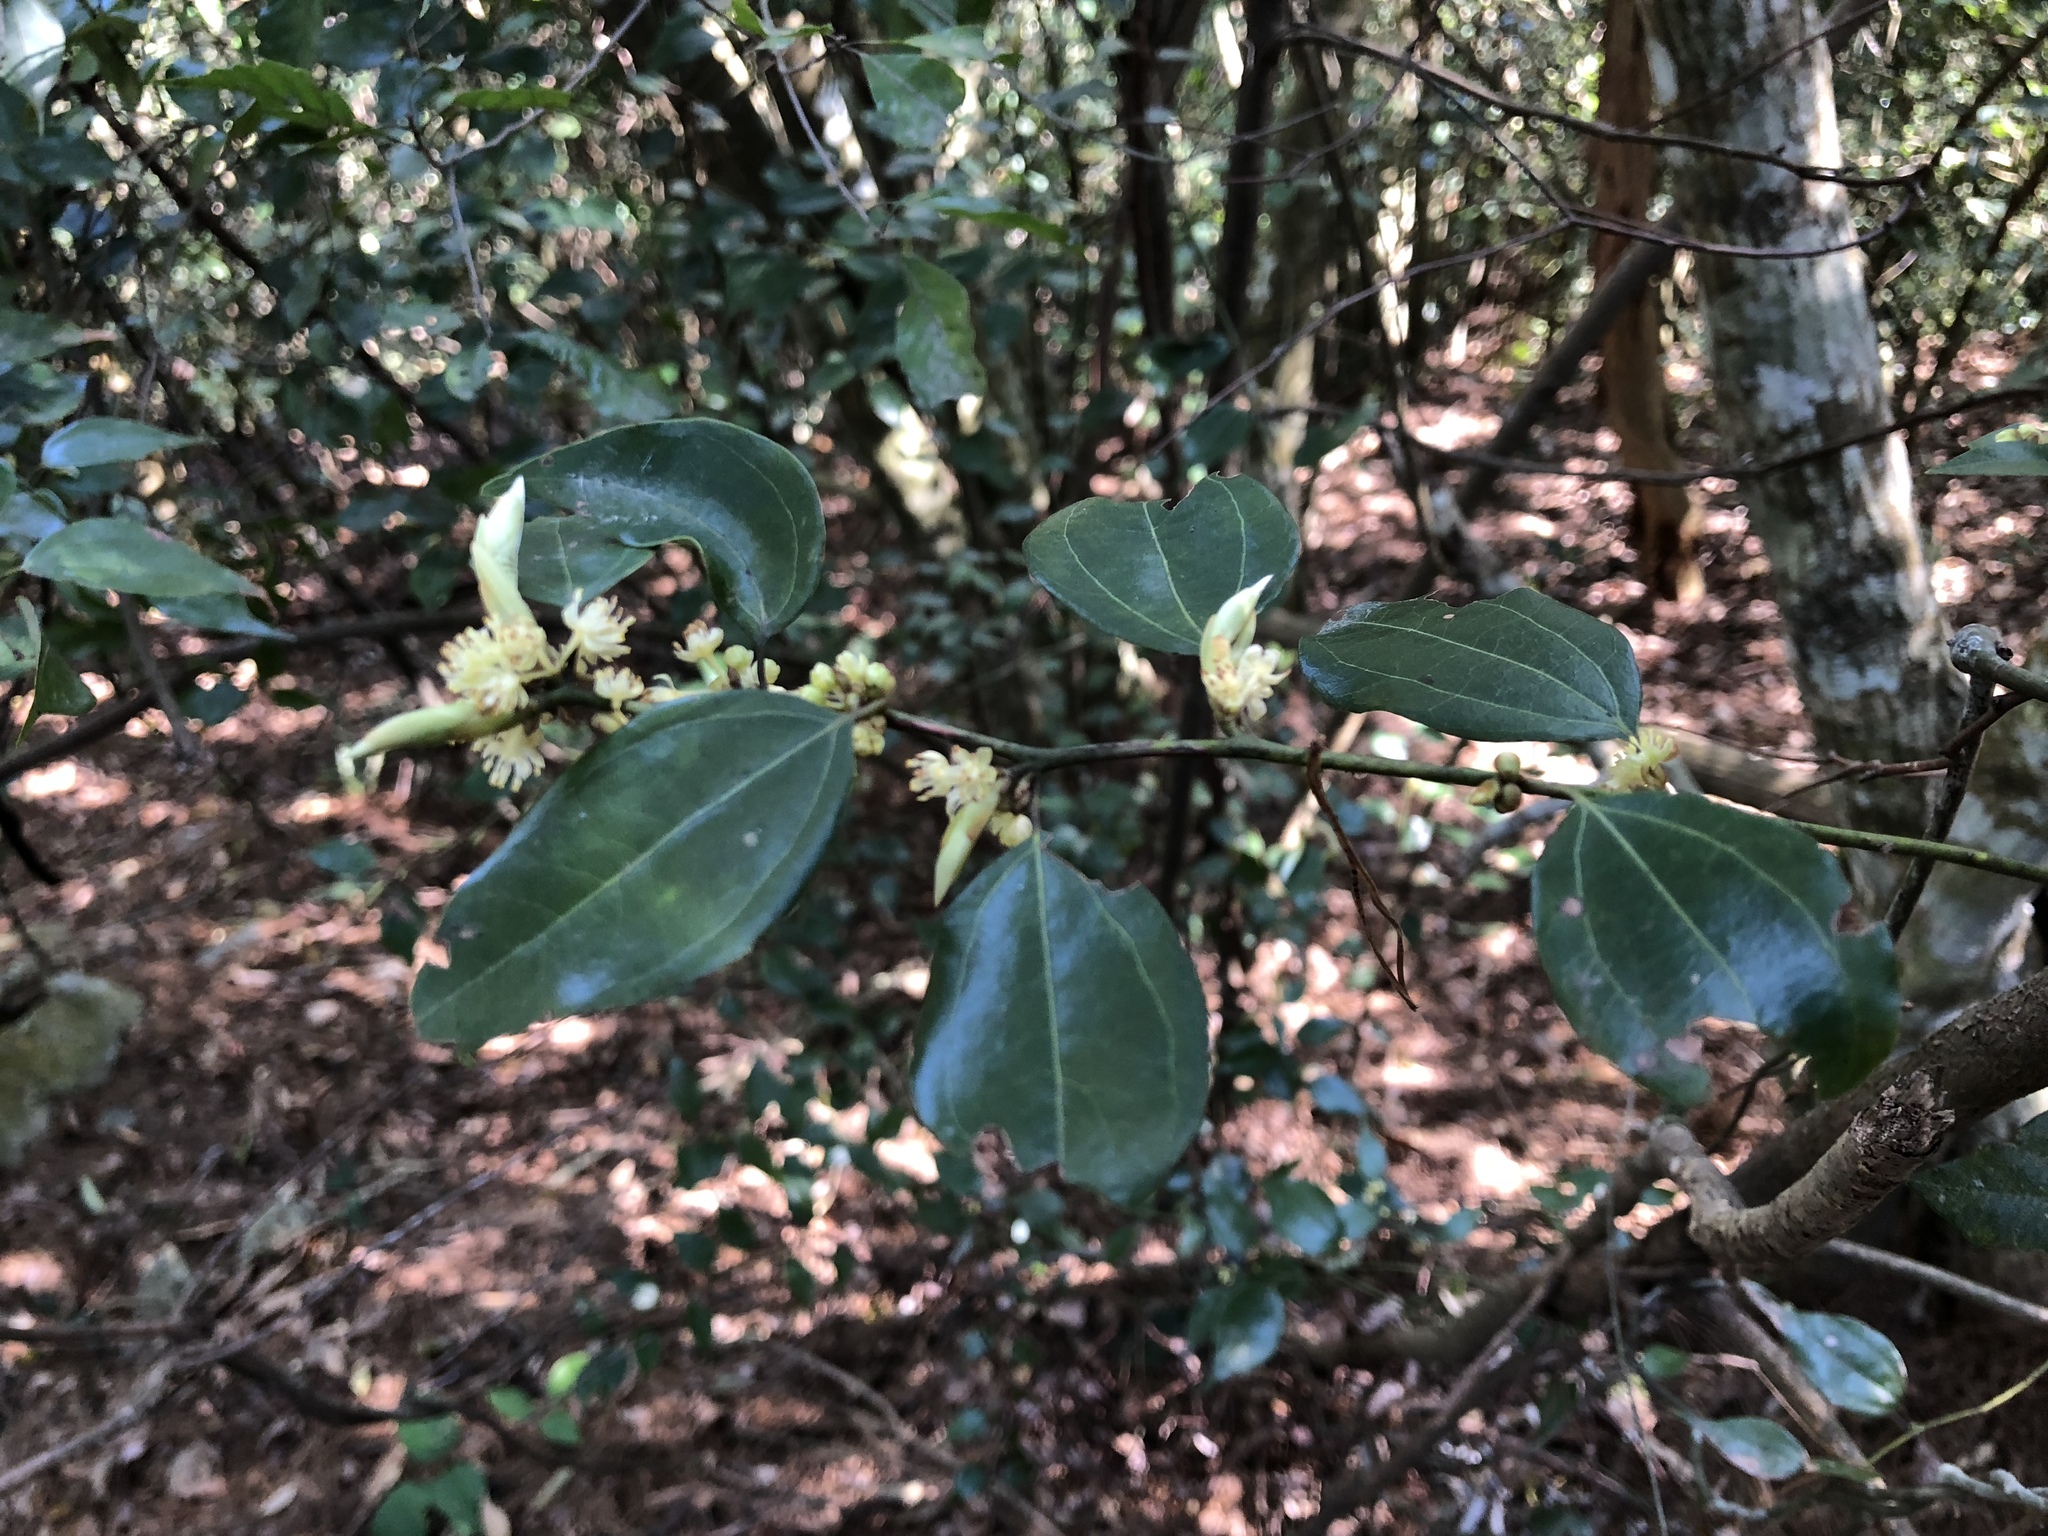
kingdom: Plantae
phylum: Tracheophyta
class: Magnoliopsida
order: Laurales
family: Lauraceae
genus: Lindera
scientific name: Lindera aggregata
